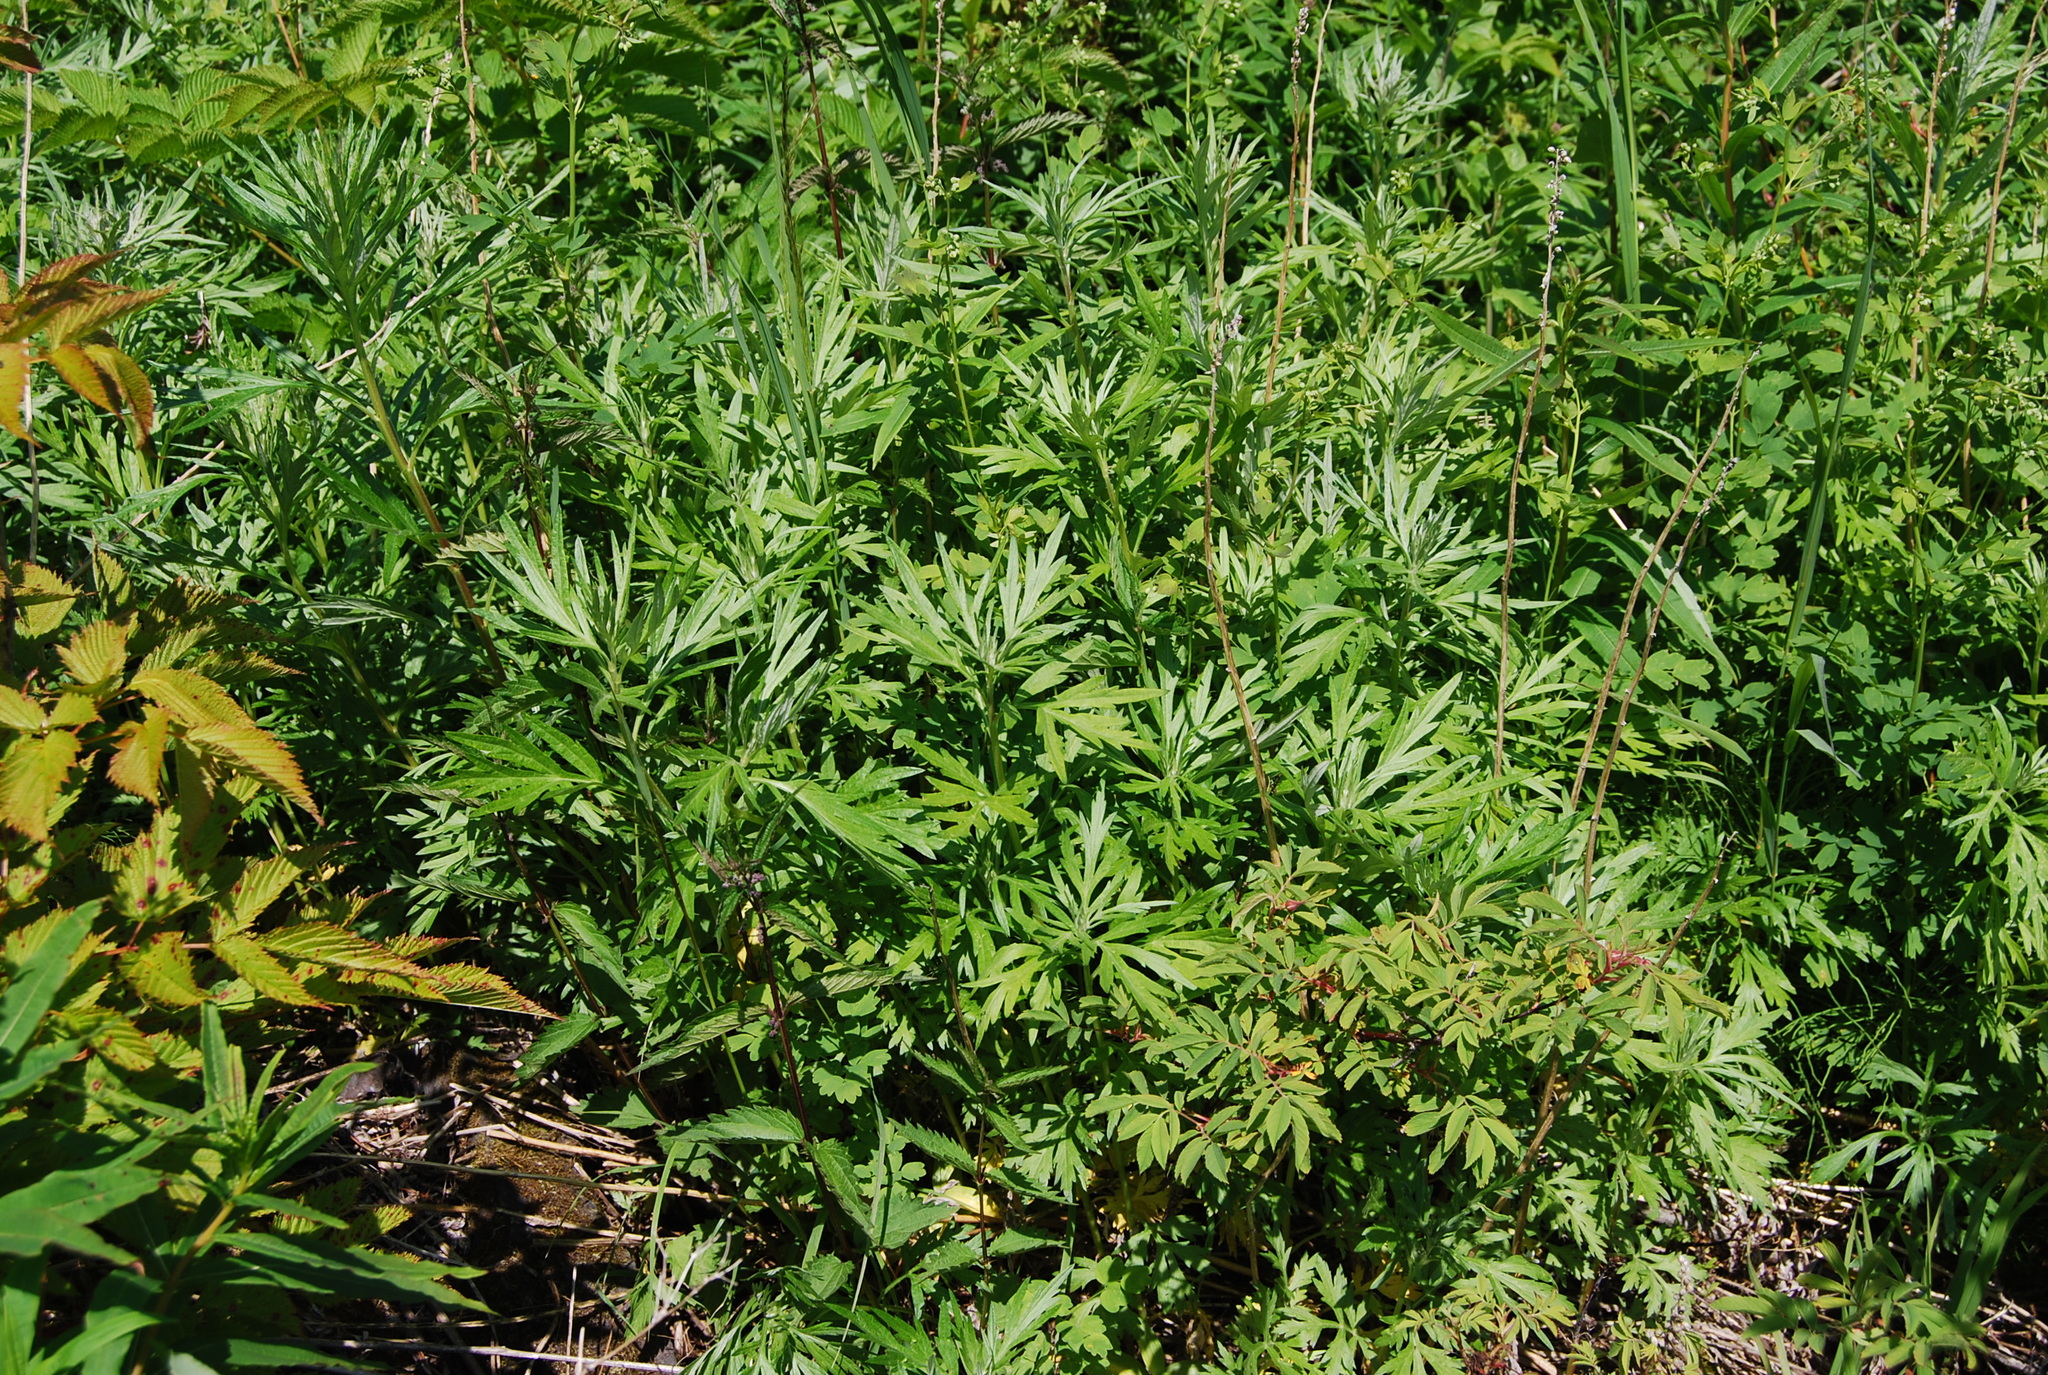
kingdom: Plantae
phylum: Tracheophyta
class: Magnoliopsida
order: Asterales
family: Asteraceae
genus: Artemisia
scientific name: Artemisia vulgaris
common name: Mugwort
